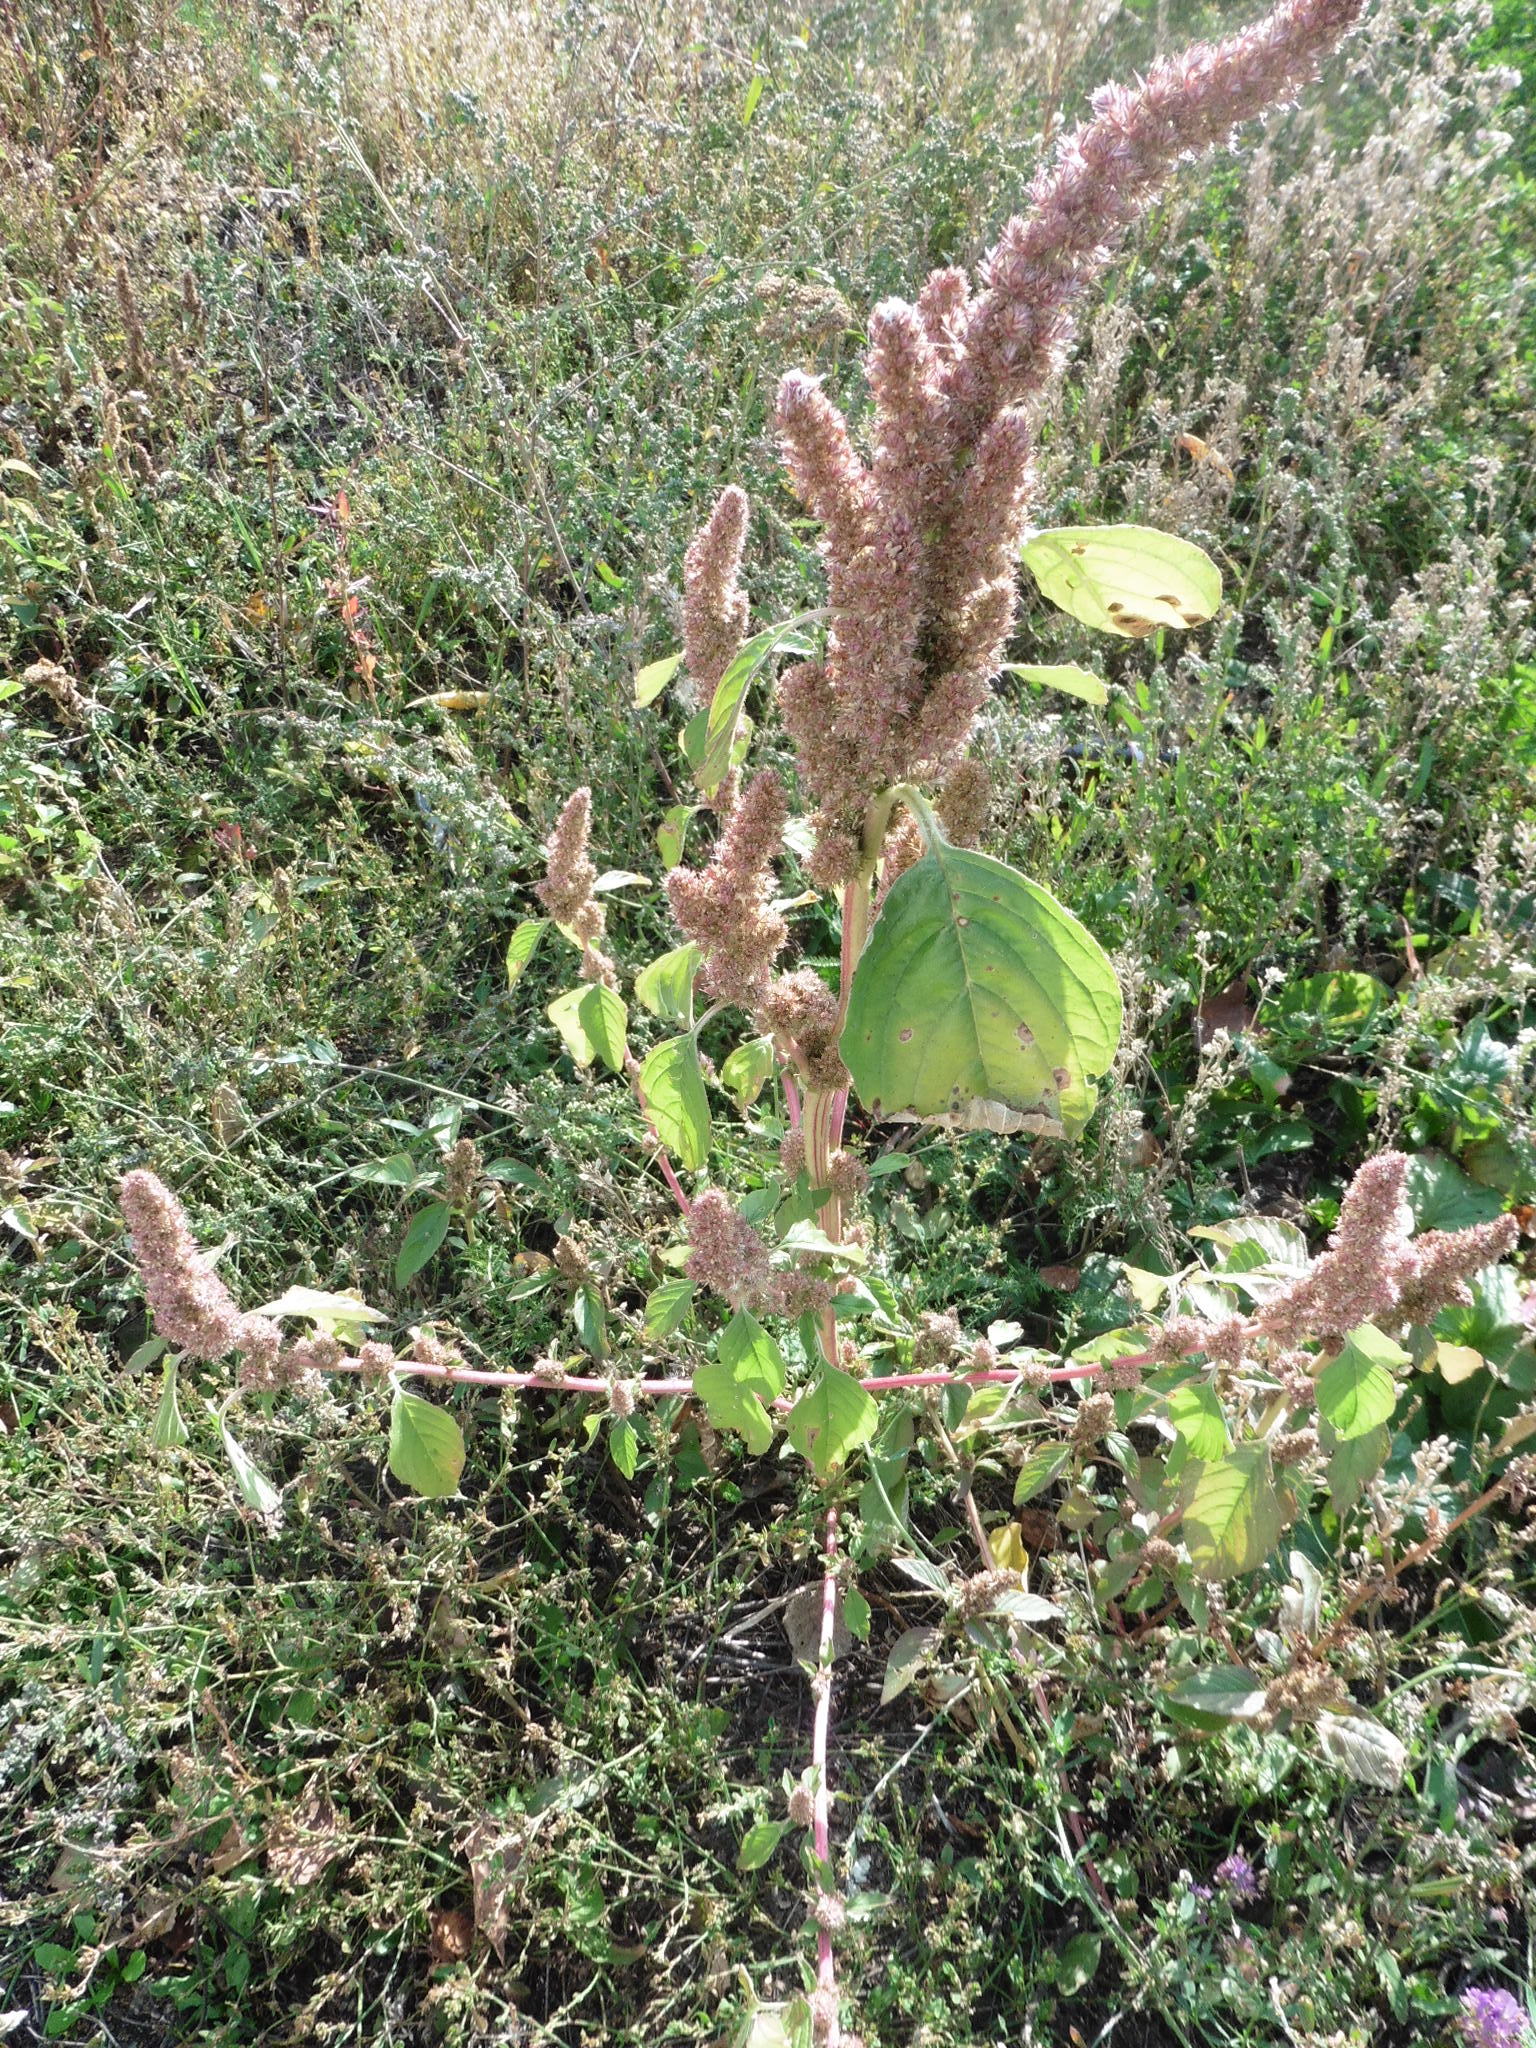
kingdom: Plantae
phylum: Tracheophyta
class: Magnoliopsida
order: Caryophyllales
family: Amaranthaceae
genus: Amaranthus
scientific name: Amaranthus retroflexus
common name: Redroot amaranth
